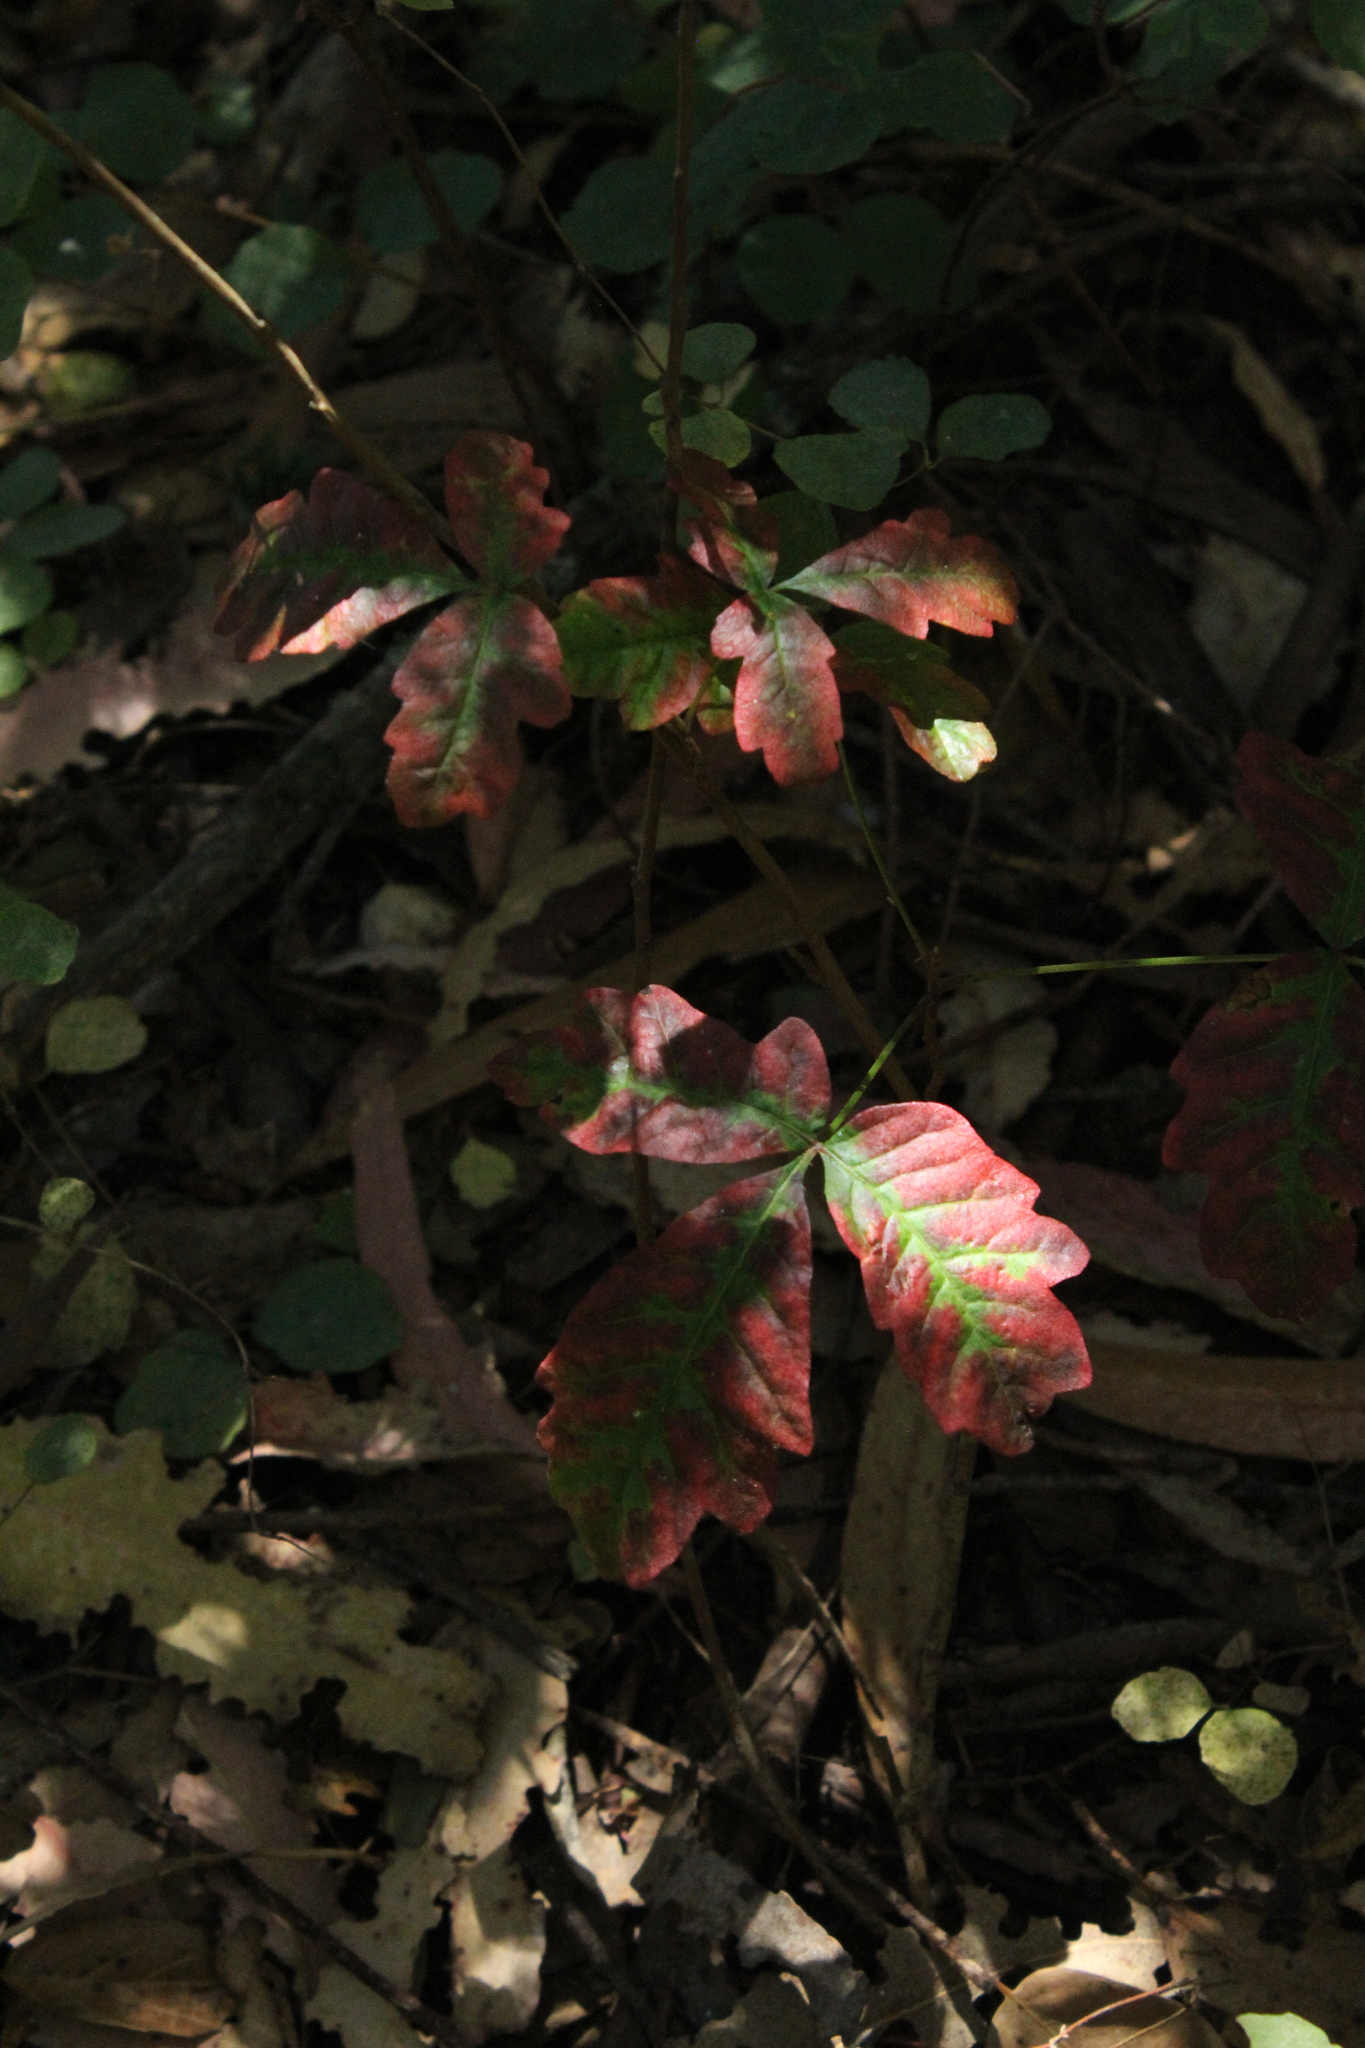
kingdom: Plantae
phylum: Tracheophyta
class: Magnoliopsida
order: Sapindales
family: Anacardiaceae
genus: Toxicodendron
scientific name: Toxicodendron diversilobum
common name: Pacific poison-oak
